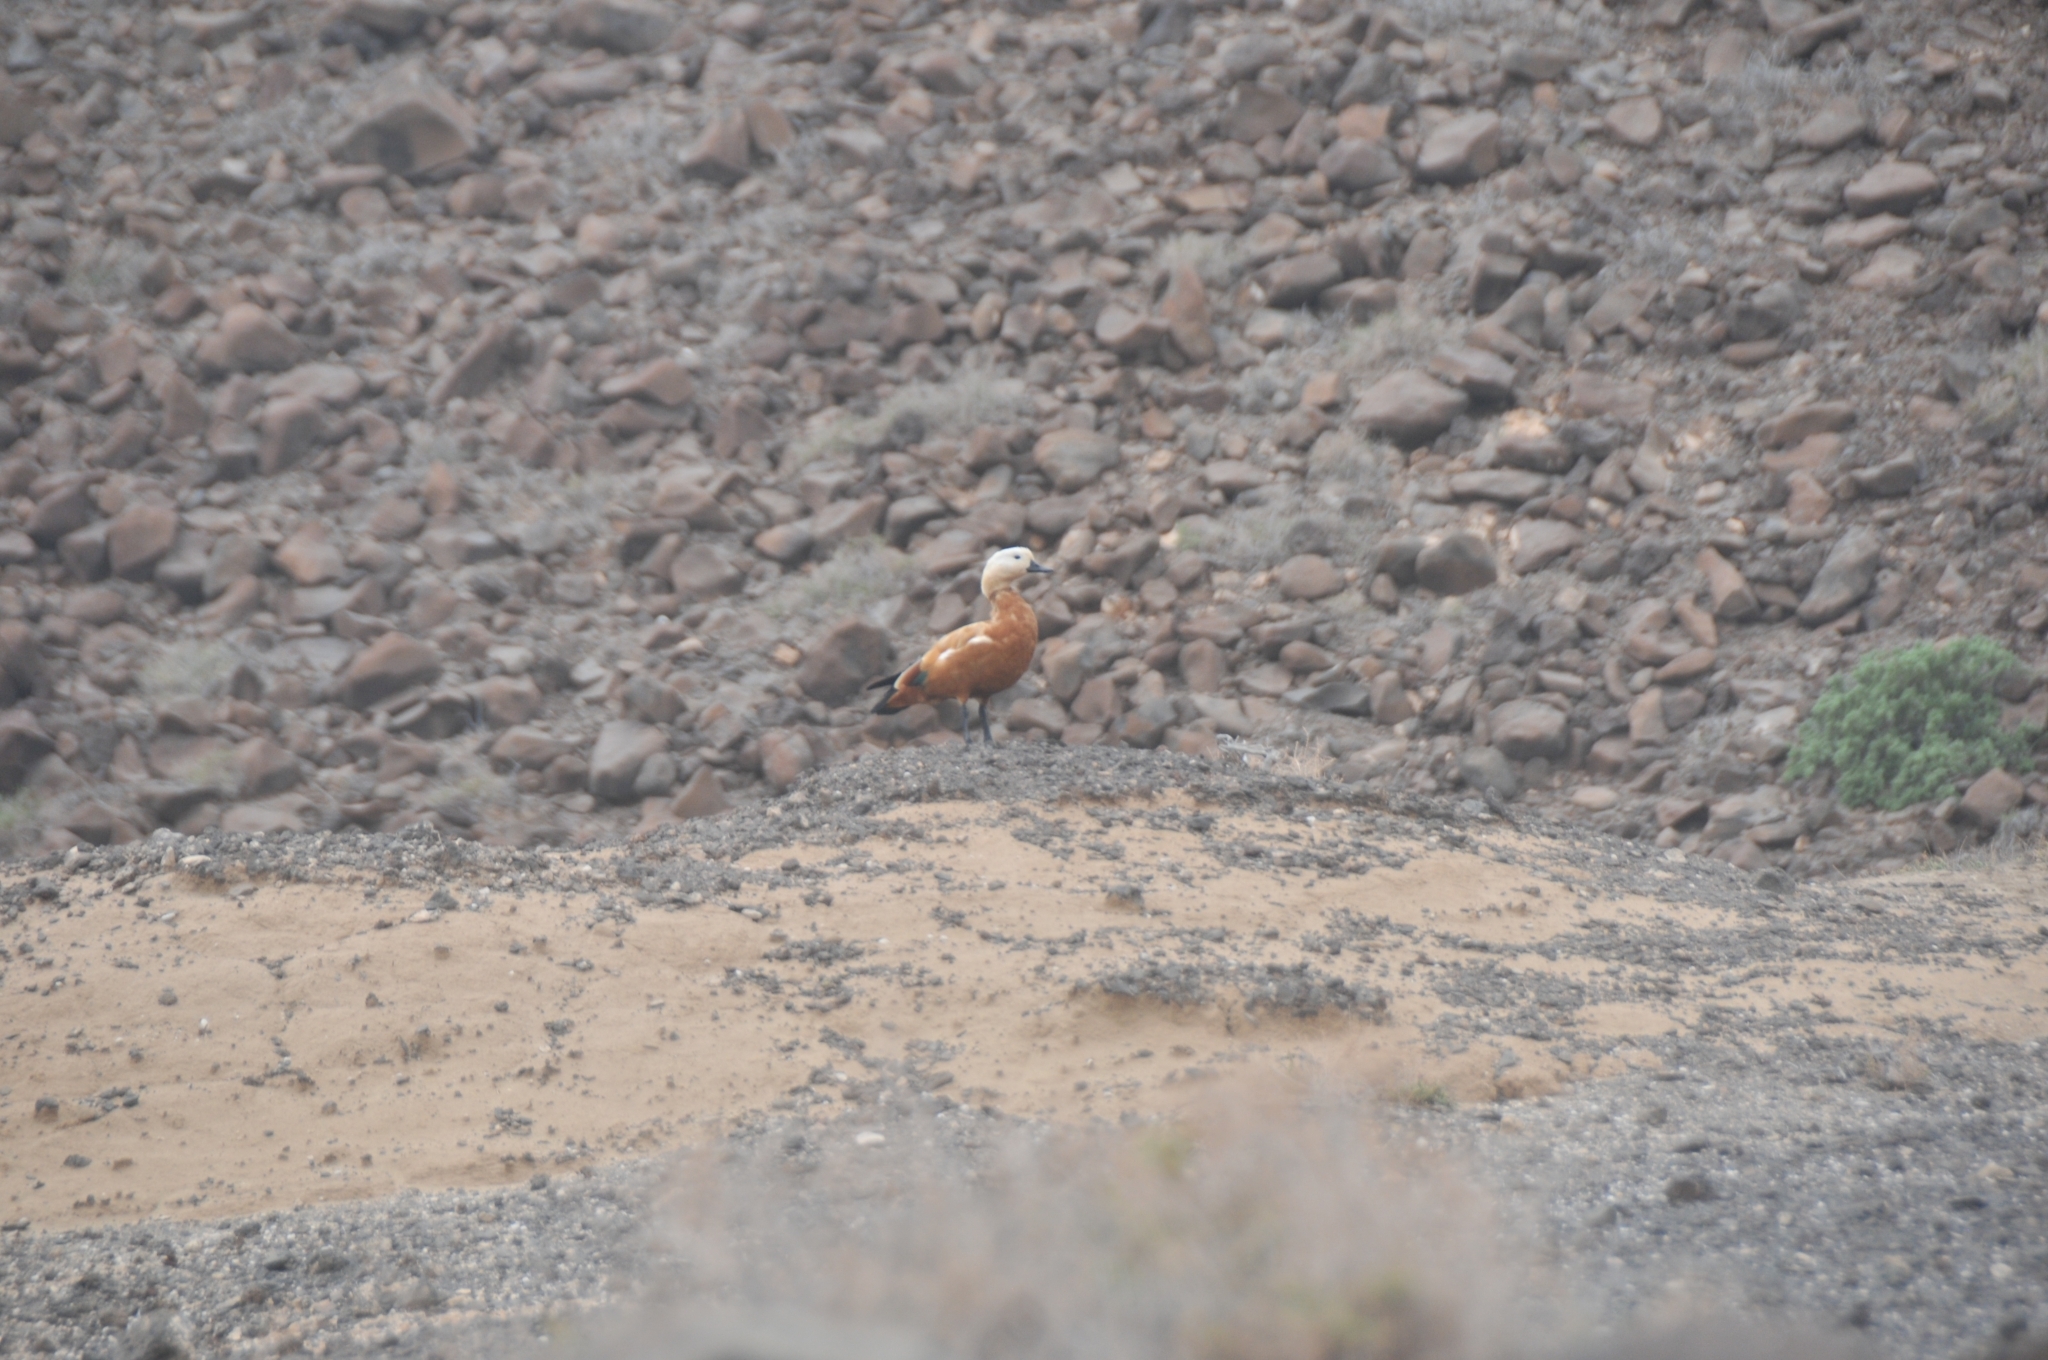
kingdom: Animalia
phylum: Chordata
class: Aves
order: Anseriformes
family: Anatidae
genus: Tadorna
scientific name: Tadorna ferruginea
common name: Ruddy shelduck
